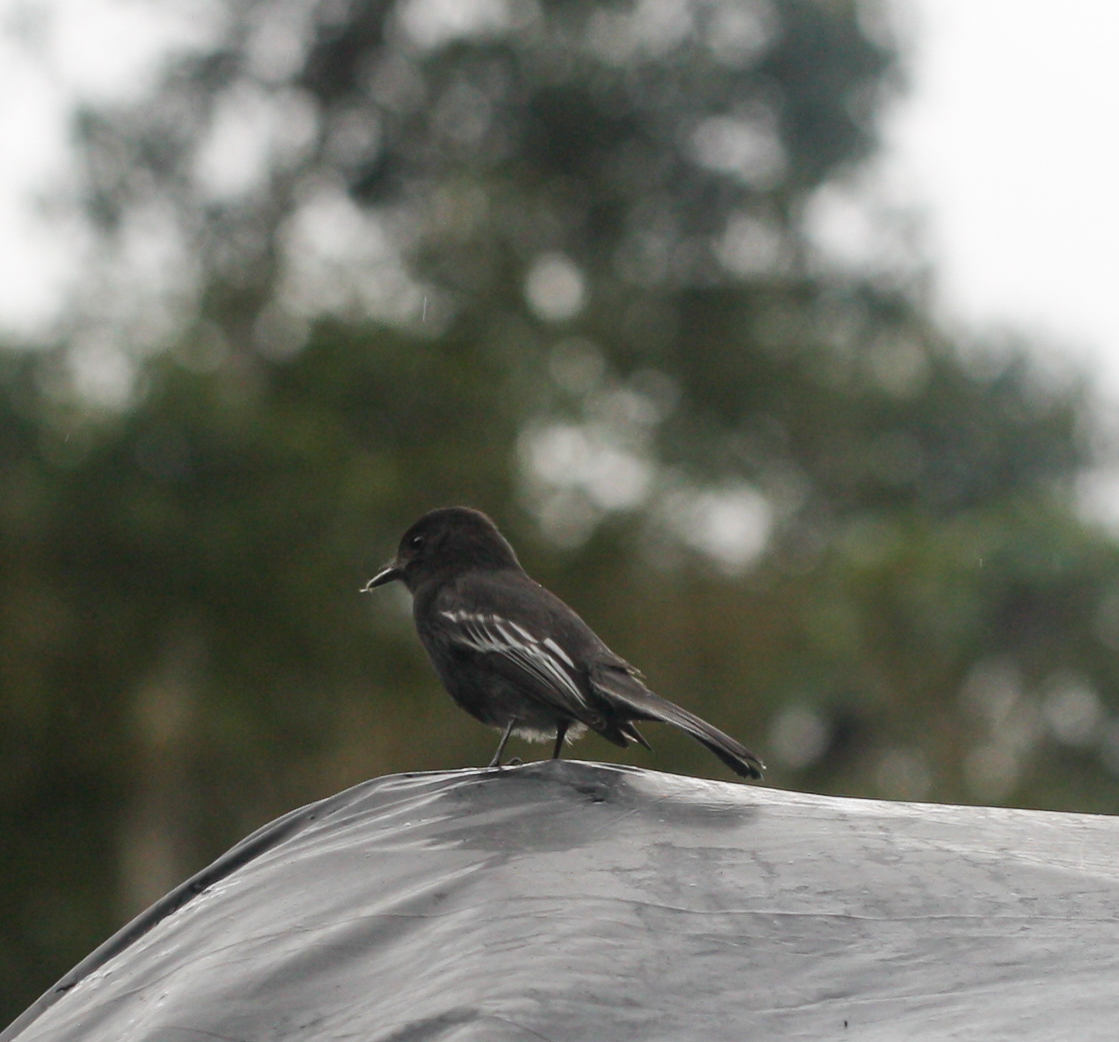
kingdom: Animalia
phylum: Chordata
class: Aves
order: Passeriformes
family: Tyrannidae
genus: Sayornis
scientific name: Sayornis nigricans
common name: Black phoebe
